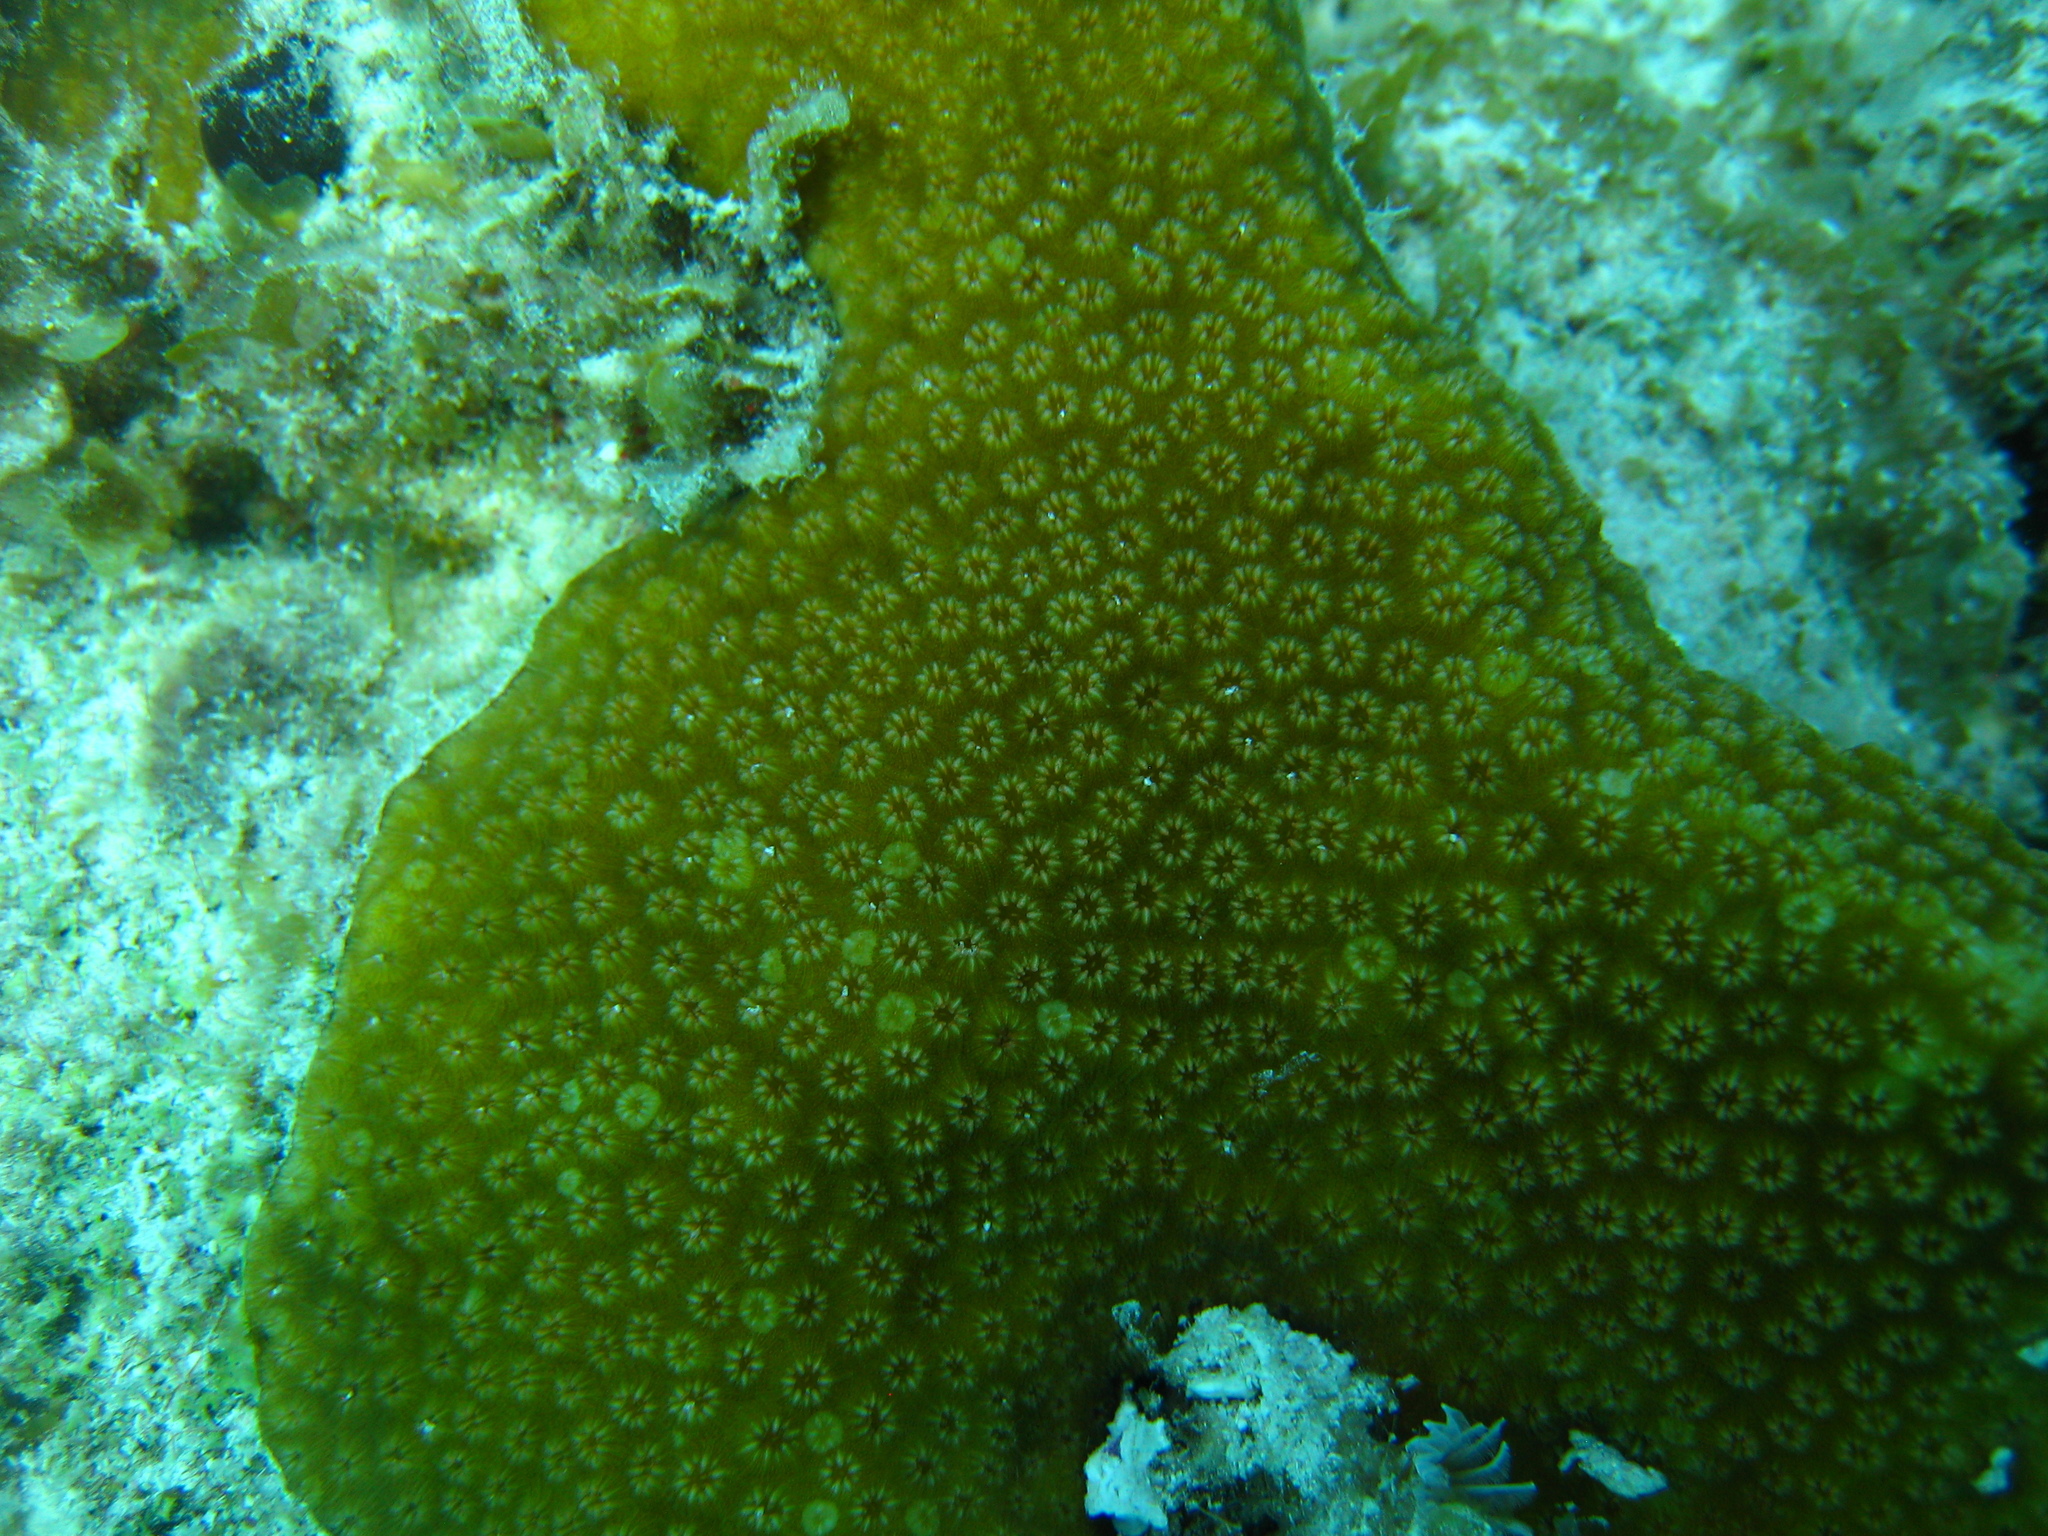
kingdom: Animalia
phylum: Cnidaria
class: Anthozoa
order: Scleractinia
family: Merulinidae
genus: Orbicella
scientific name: Orbicella annularis
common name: Boulder star coral
